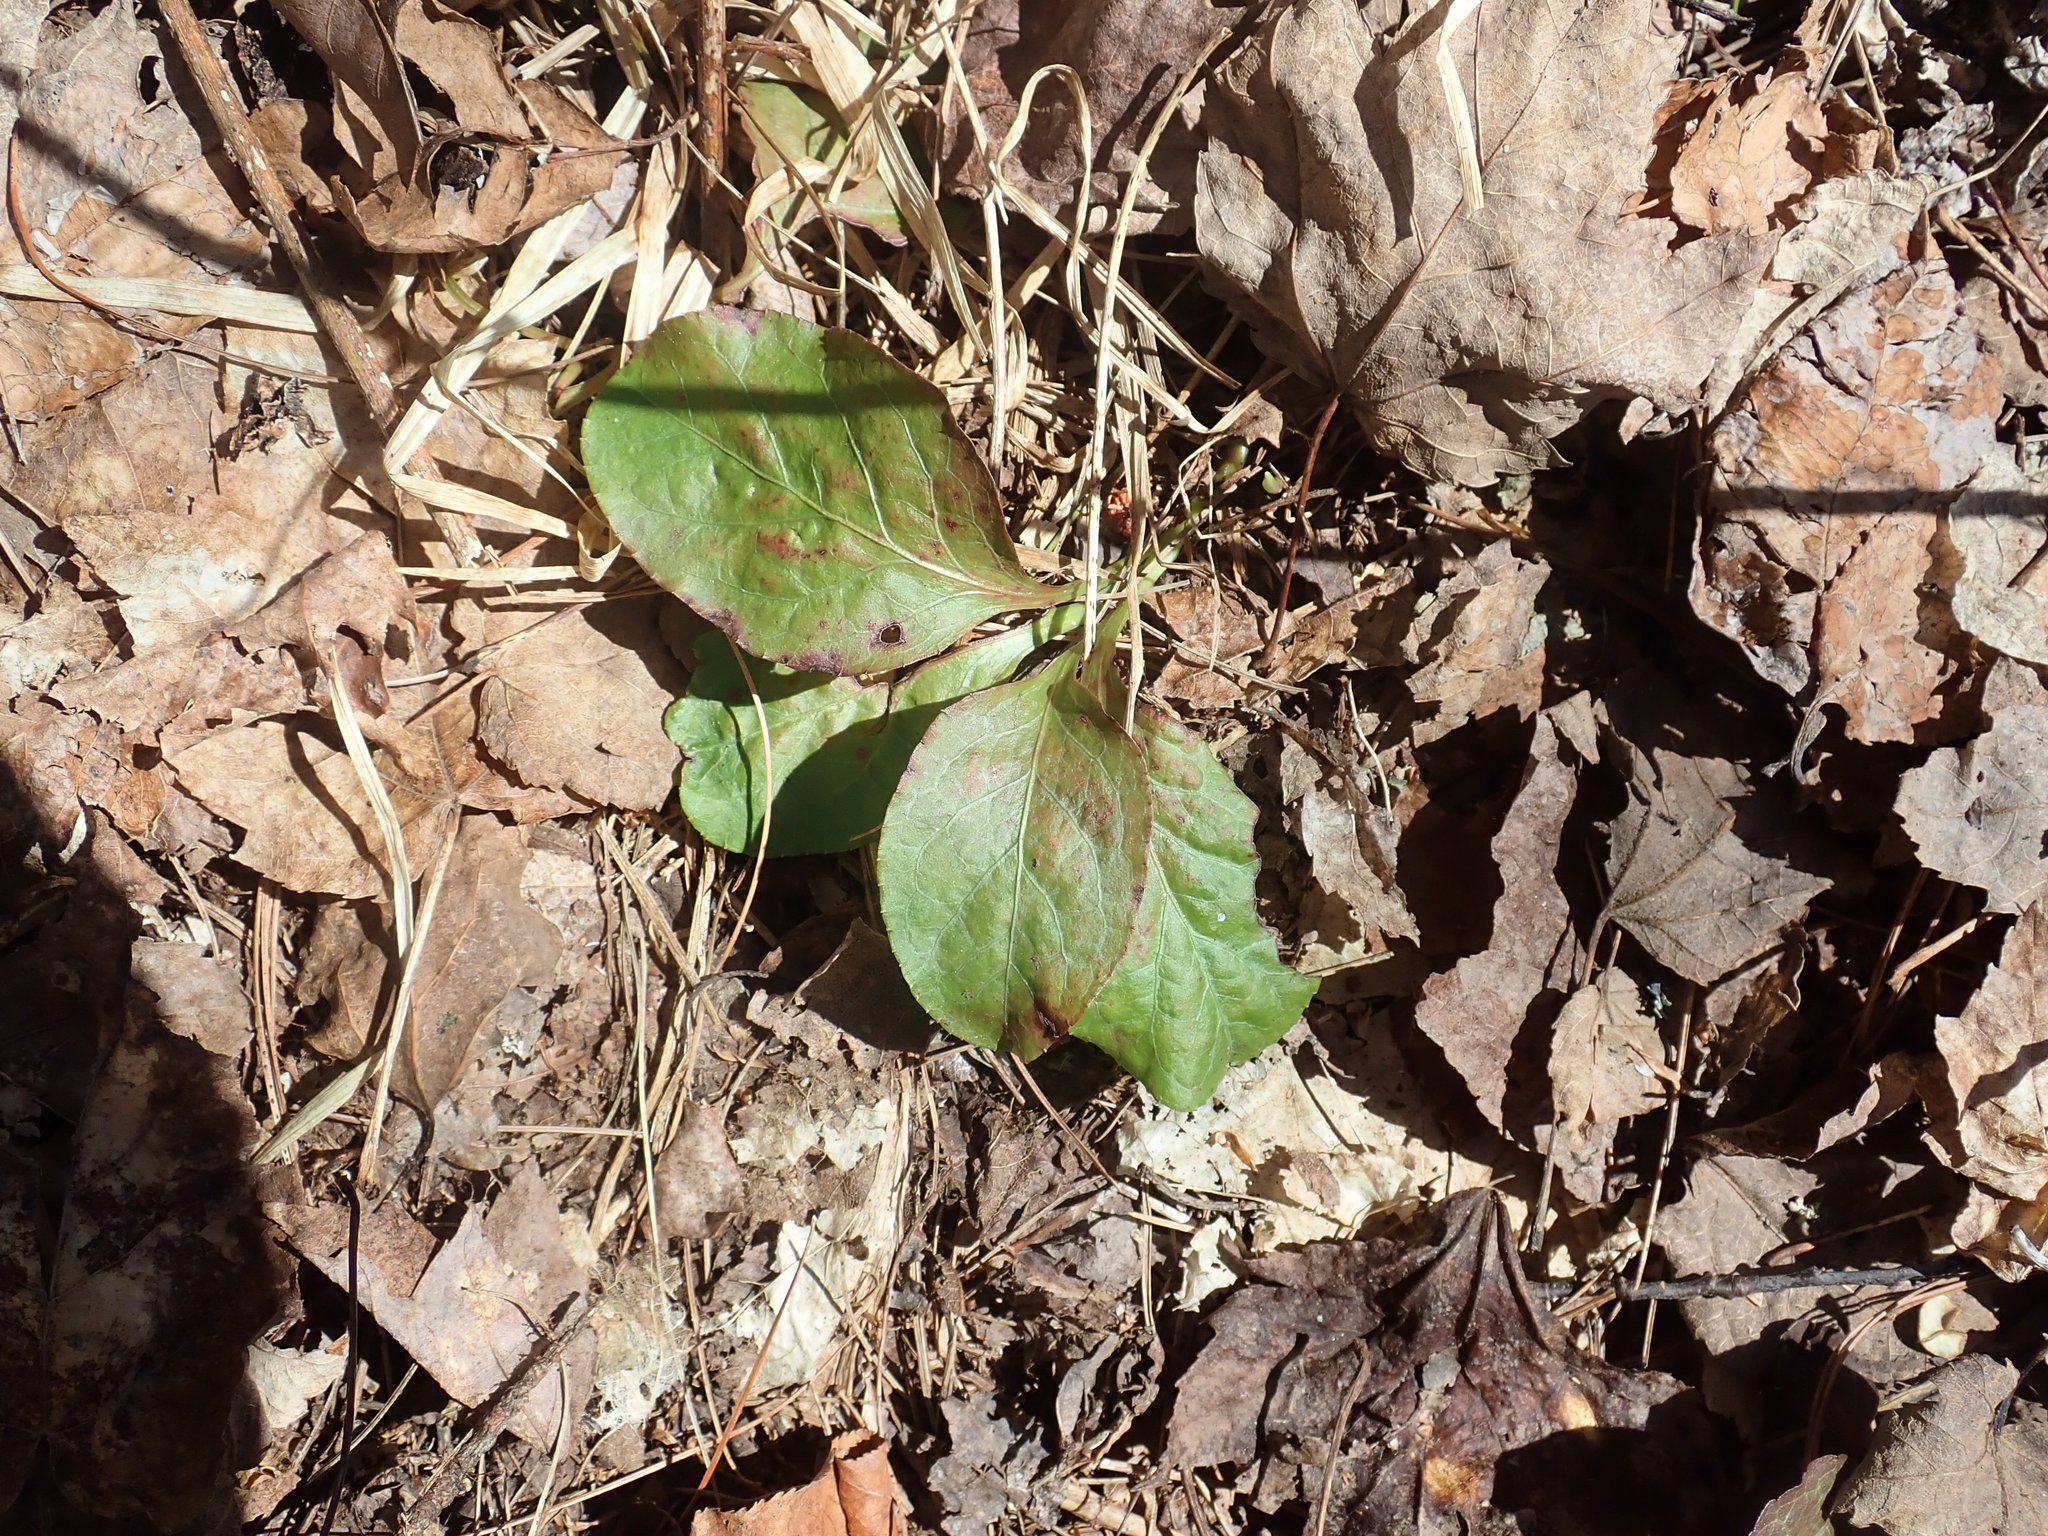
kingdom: Plantae
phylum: Tracheophyta
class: Magnoliopsida
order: Ericales
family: Ericaceae
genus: Pyrola
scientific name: Pyrola elliptica
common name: Shinleaf
